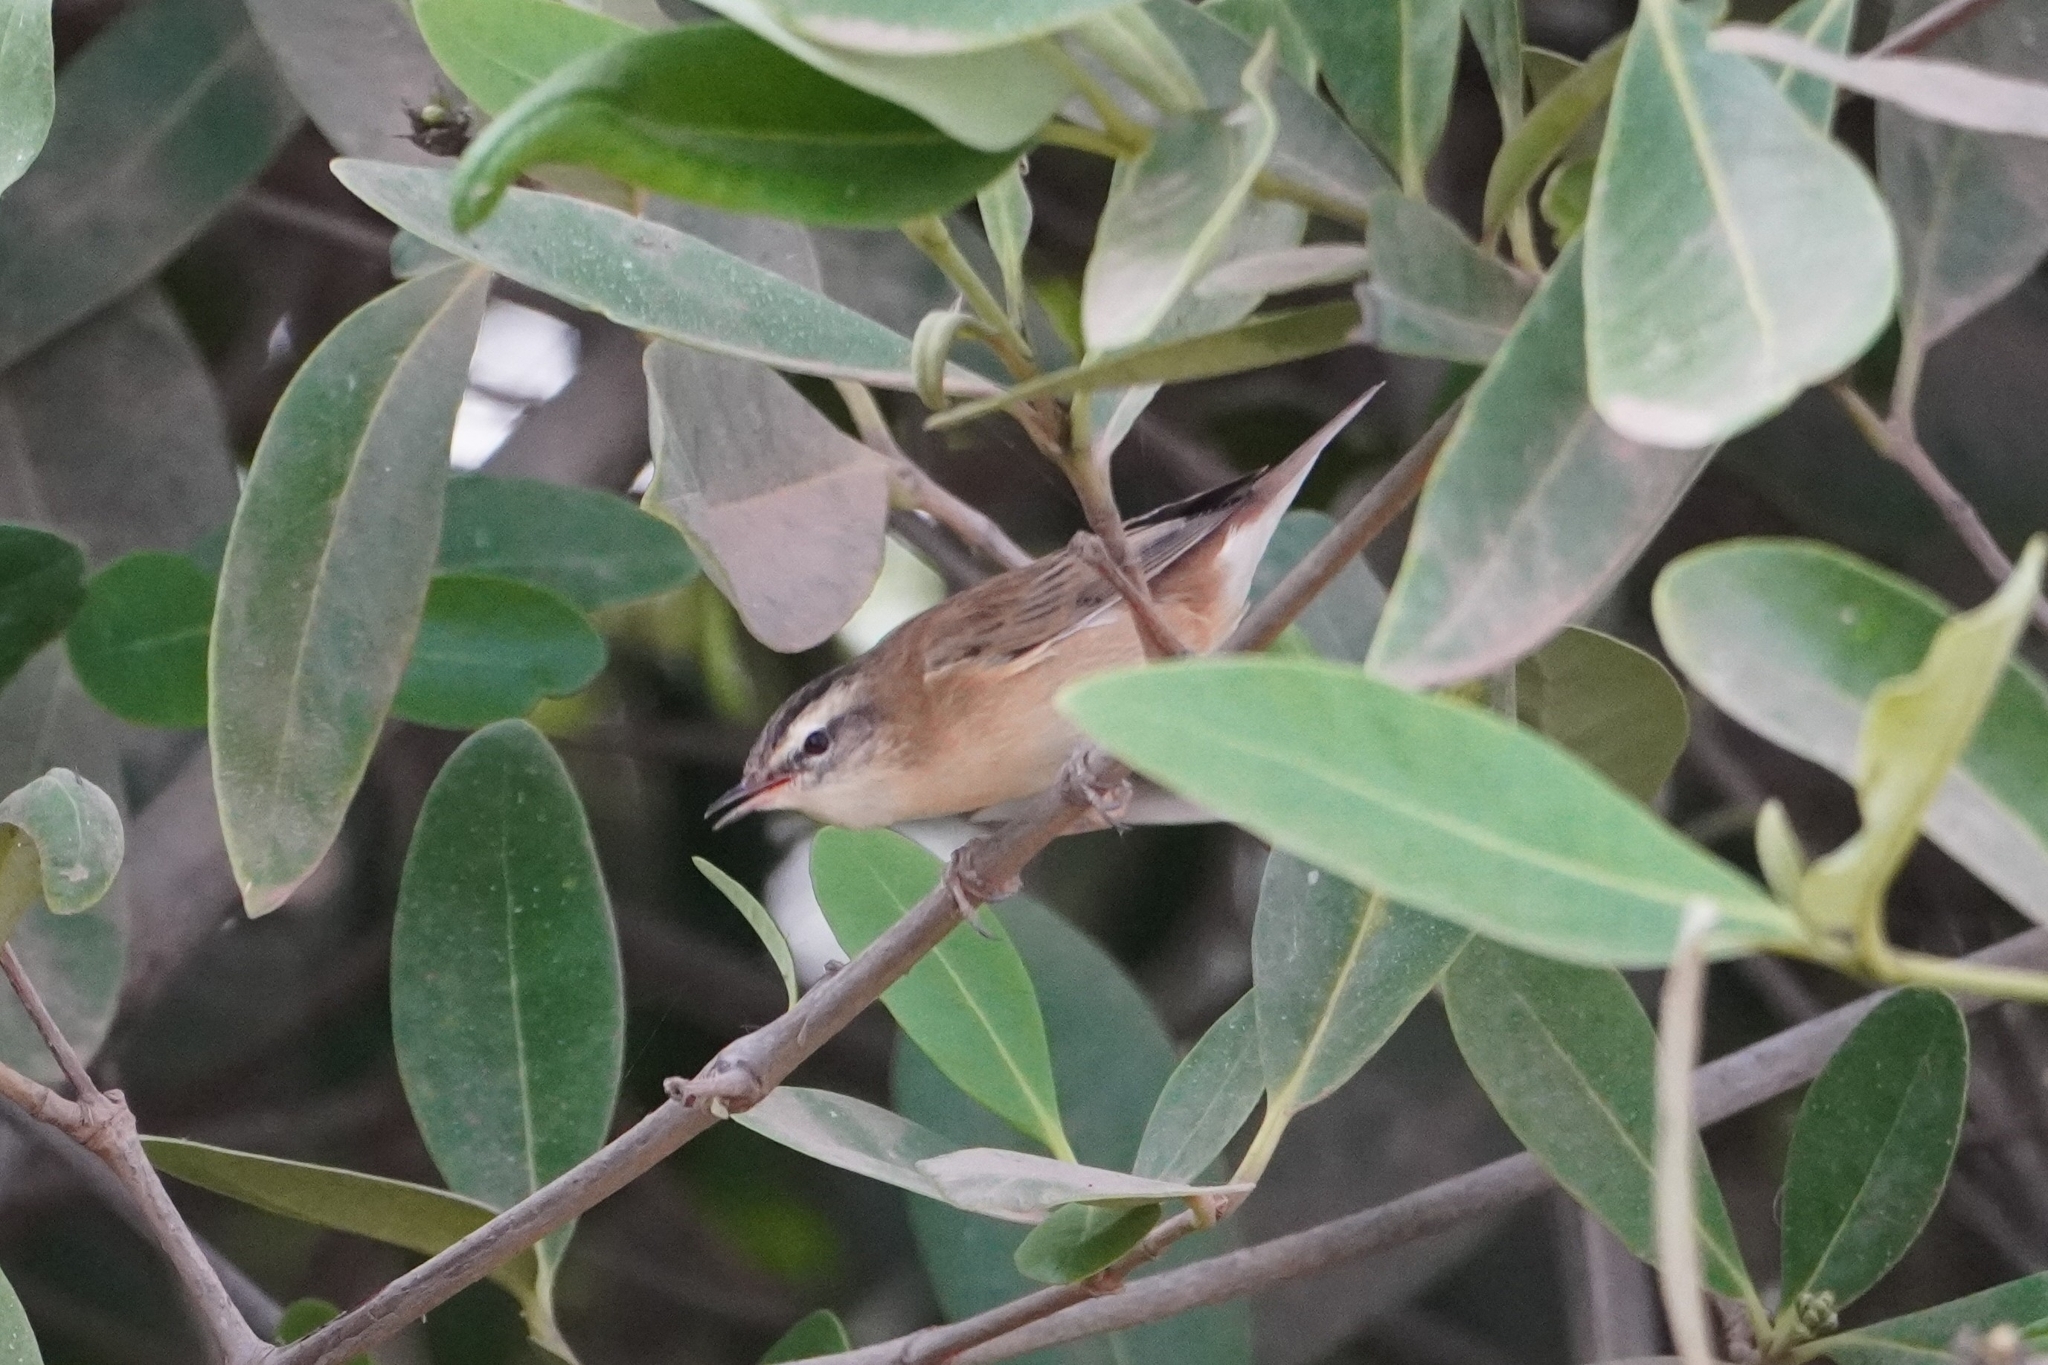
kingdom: Animalia
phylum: Chordata
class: Aves
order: Passeriformes
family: Acrocephalidae
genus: Acrocephalus
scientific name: Acrocephalus schoenobaenus
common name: Sedge warbler
